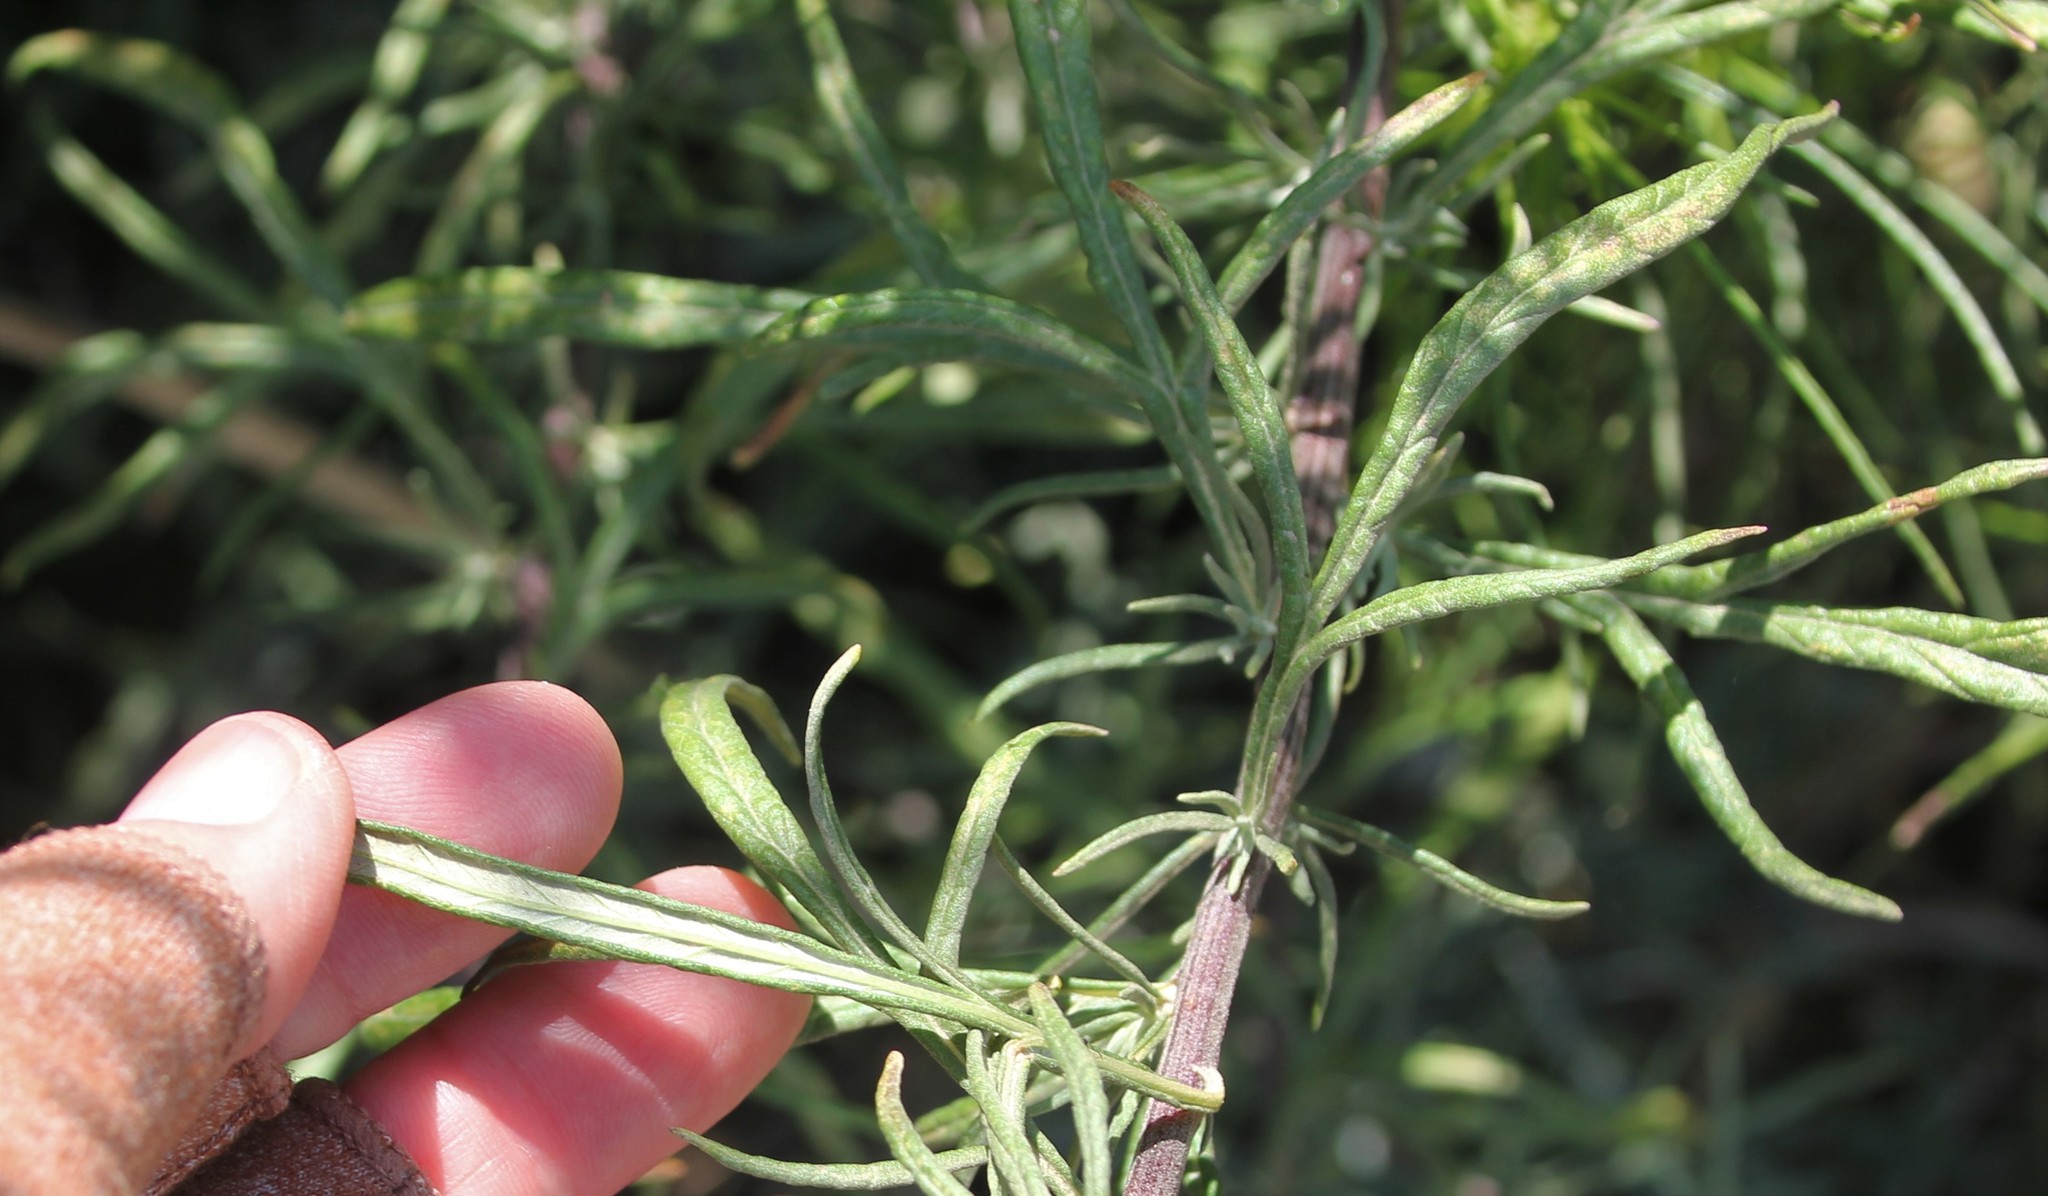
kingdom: Plantae
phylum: Tracheophyta
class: Magnoliopsida
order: Asterales
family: Asteraceae
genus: Artemisia
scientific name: Artemisia palmeri
